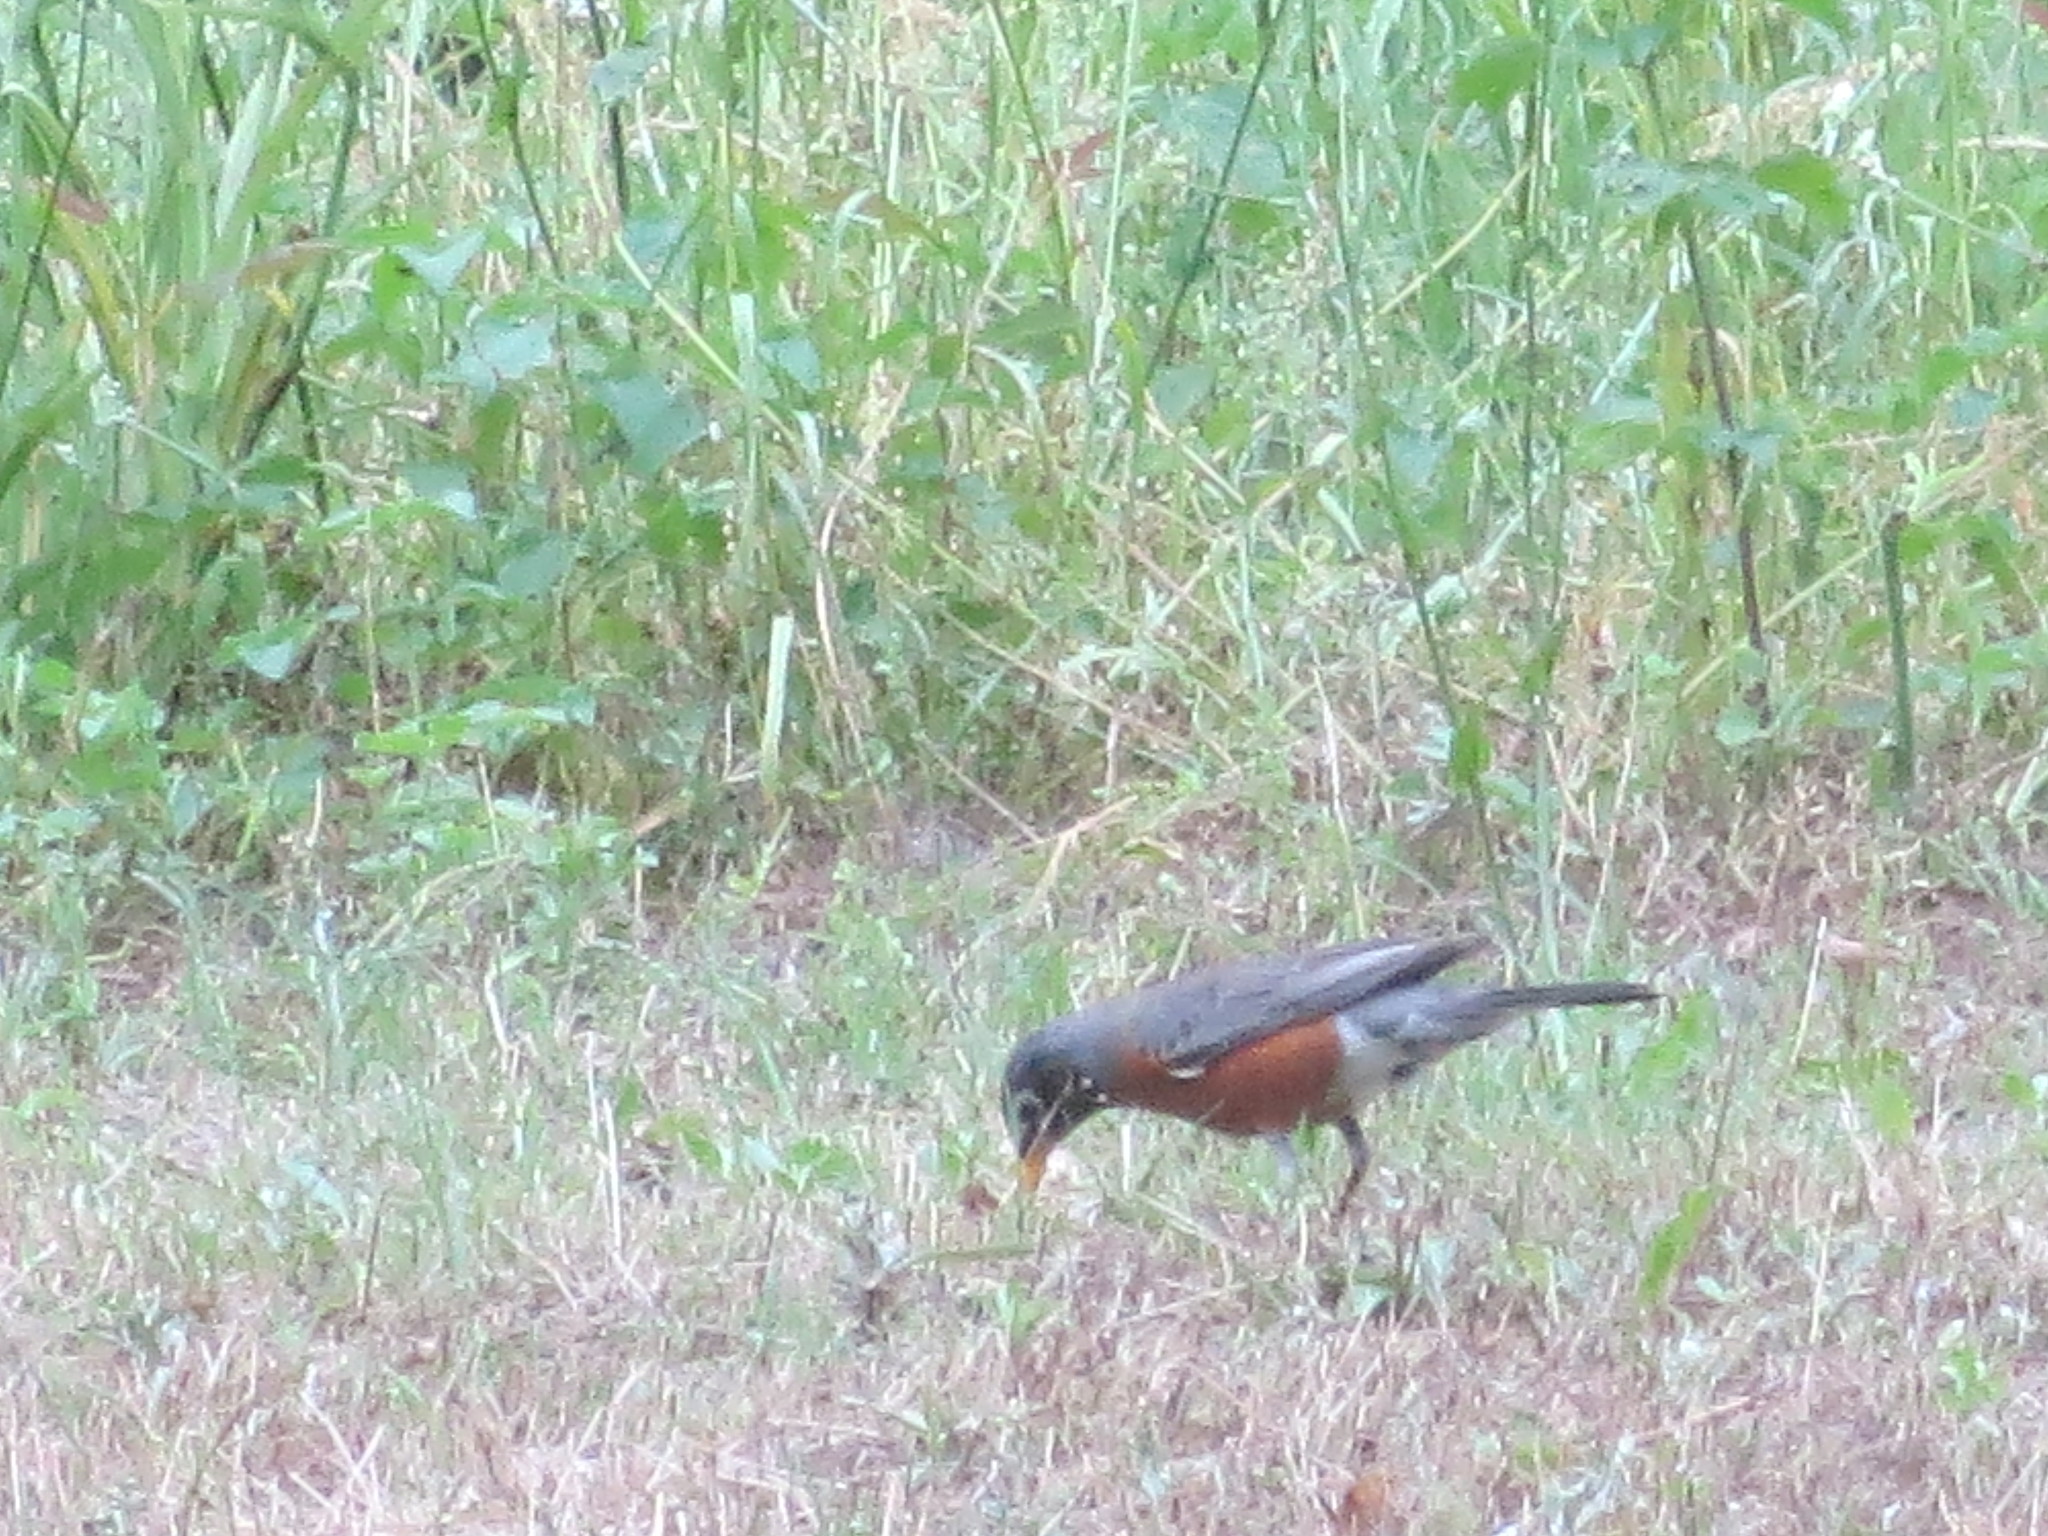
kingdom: Animalia
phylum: Chordata
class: Aves
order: Passeriformes
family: Turdidae
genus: Turdus
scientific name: Turdus migratorius
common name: American robin
